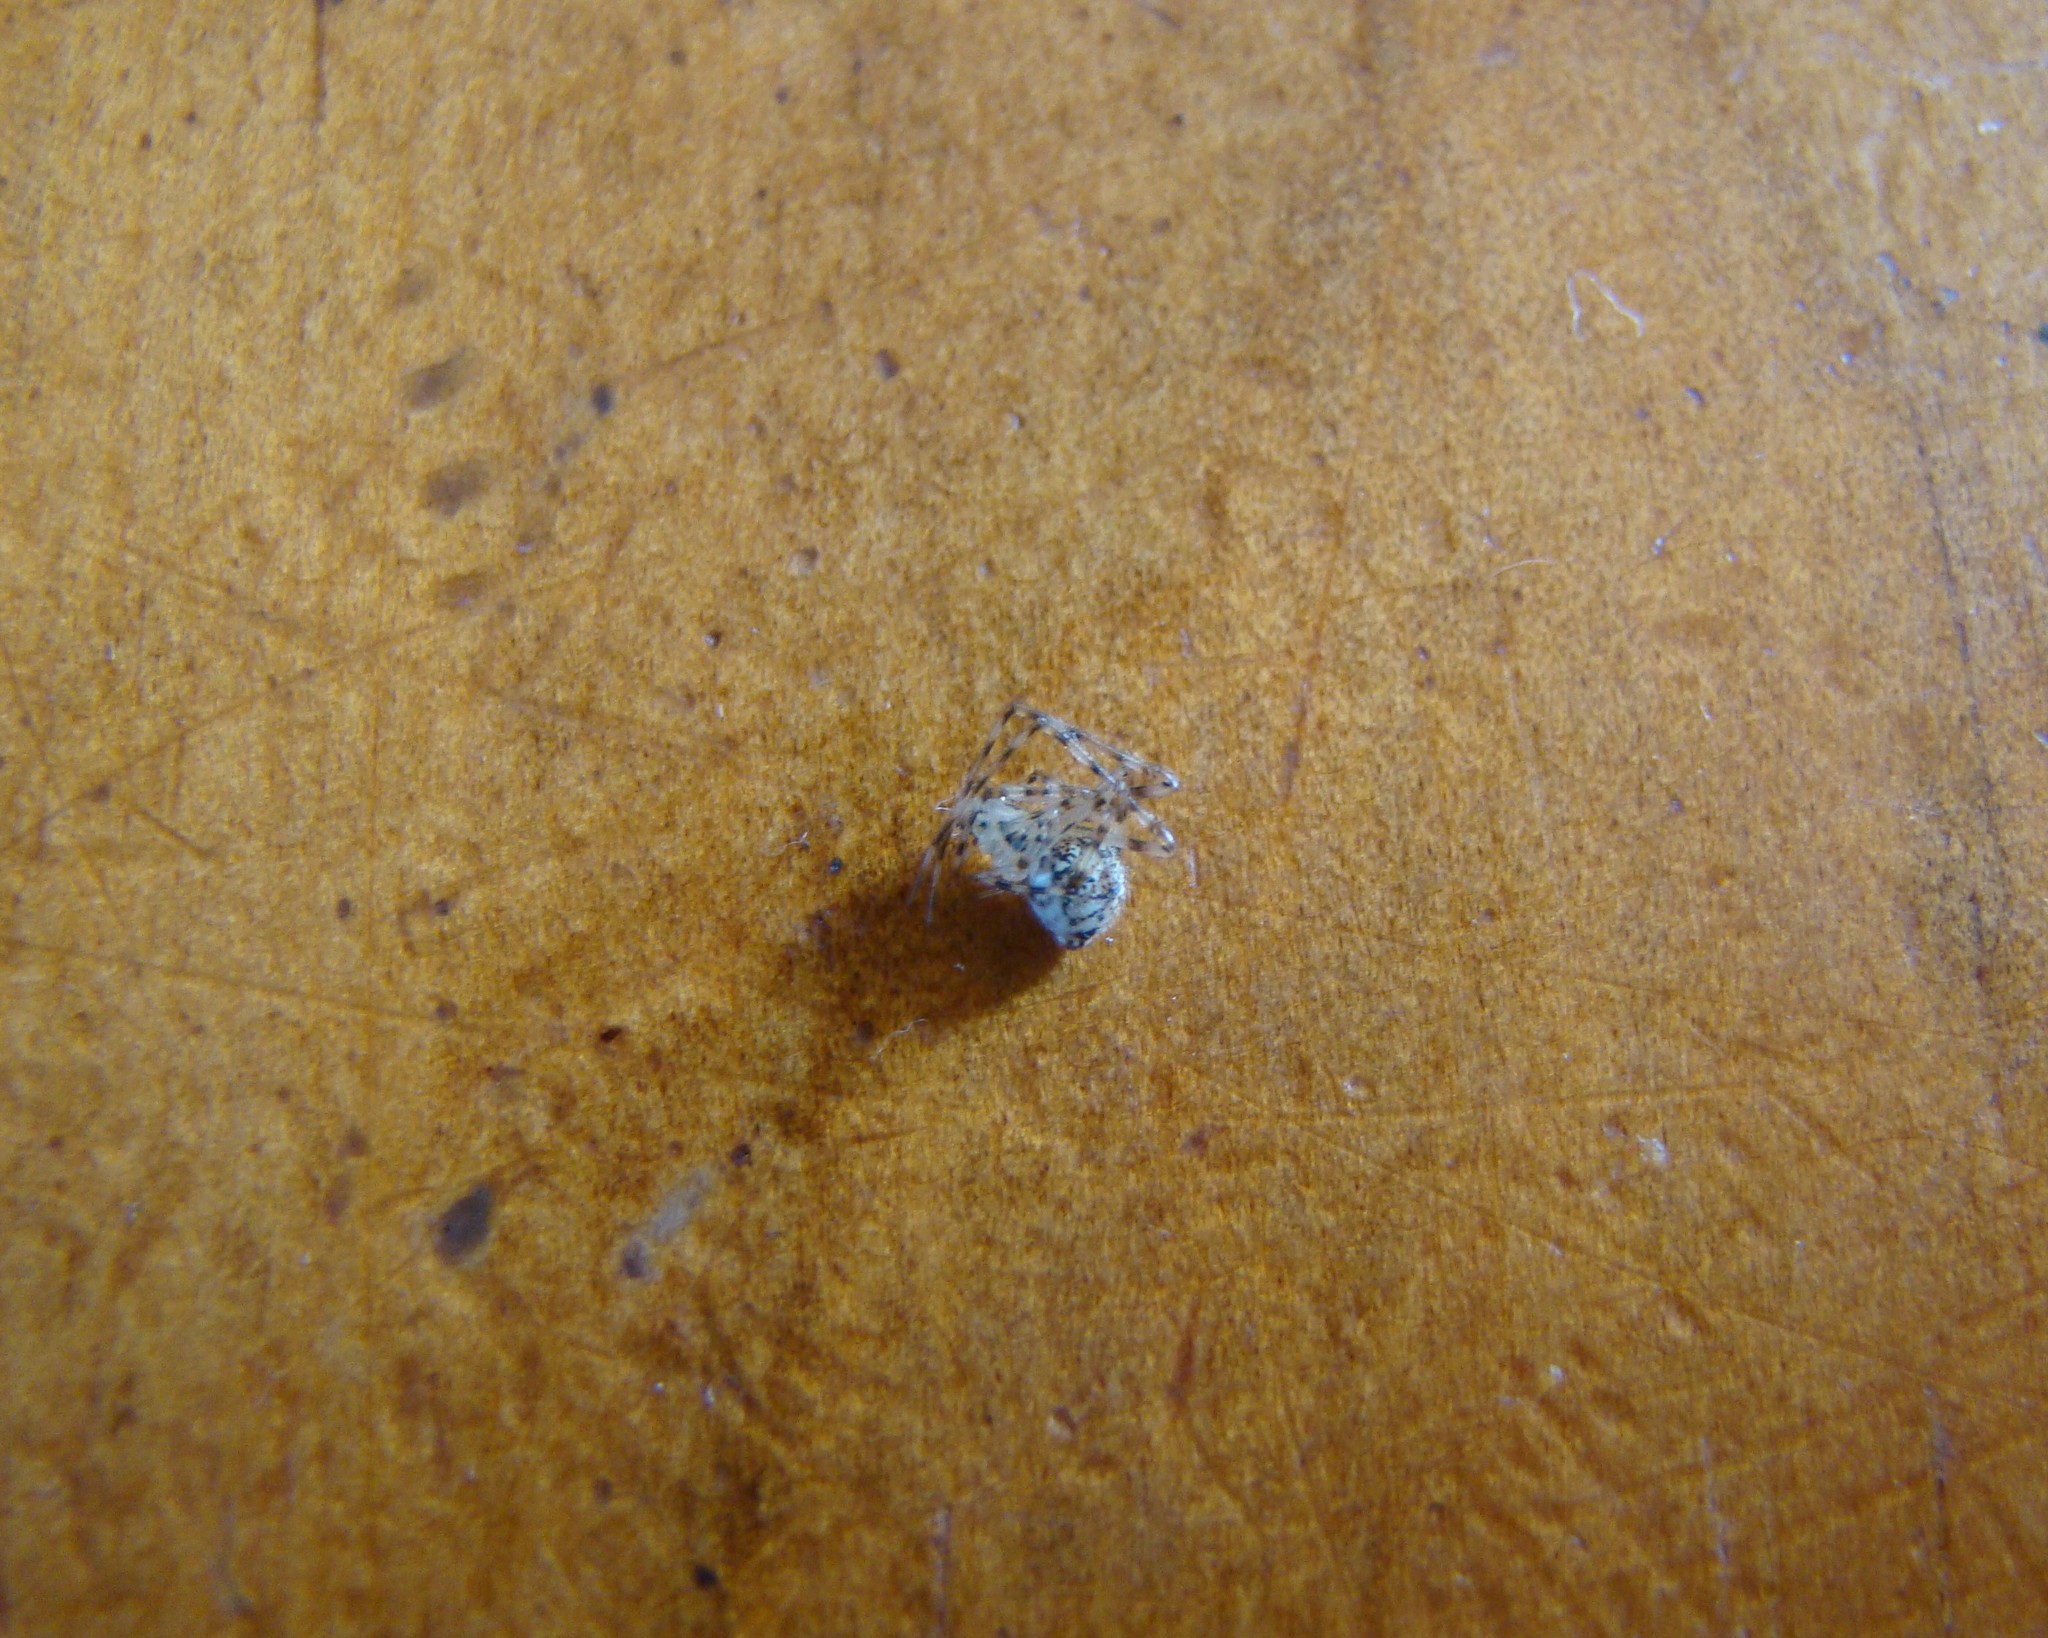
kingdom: Animalia
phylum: Arthropoda
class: Arachnida
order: Araneae
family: Theridiidae
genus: Cryptachaea
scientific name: Cryptachaea gigantipes
